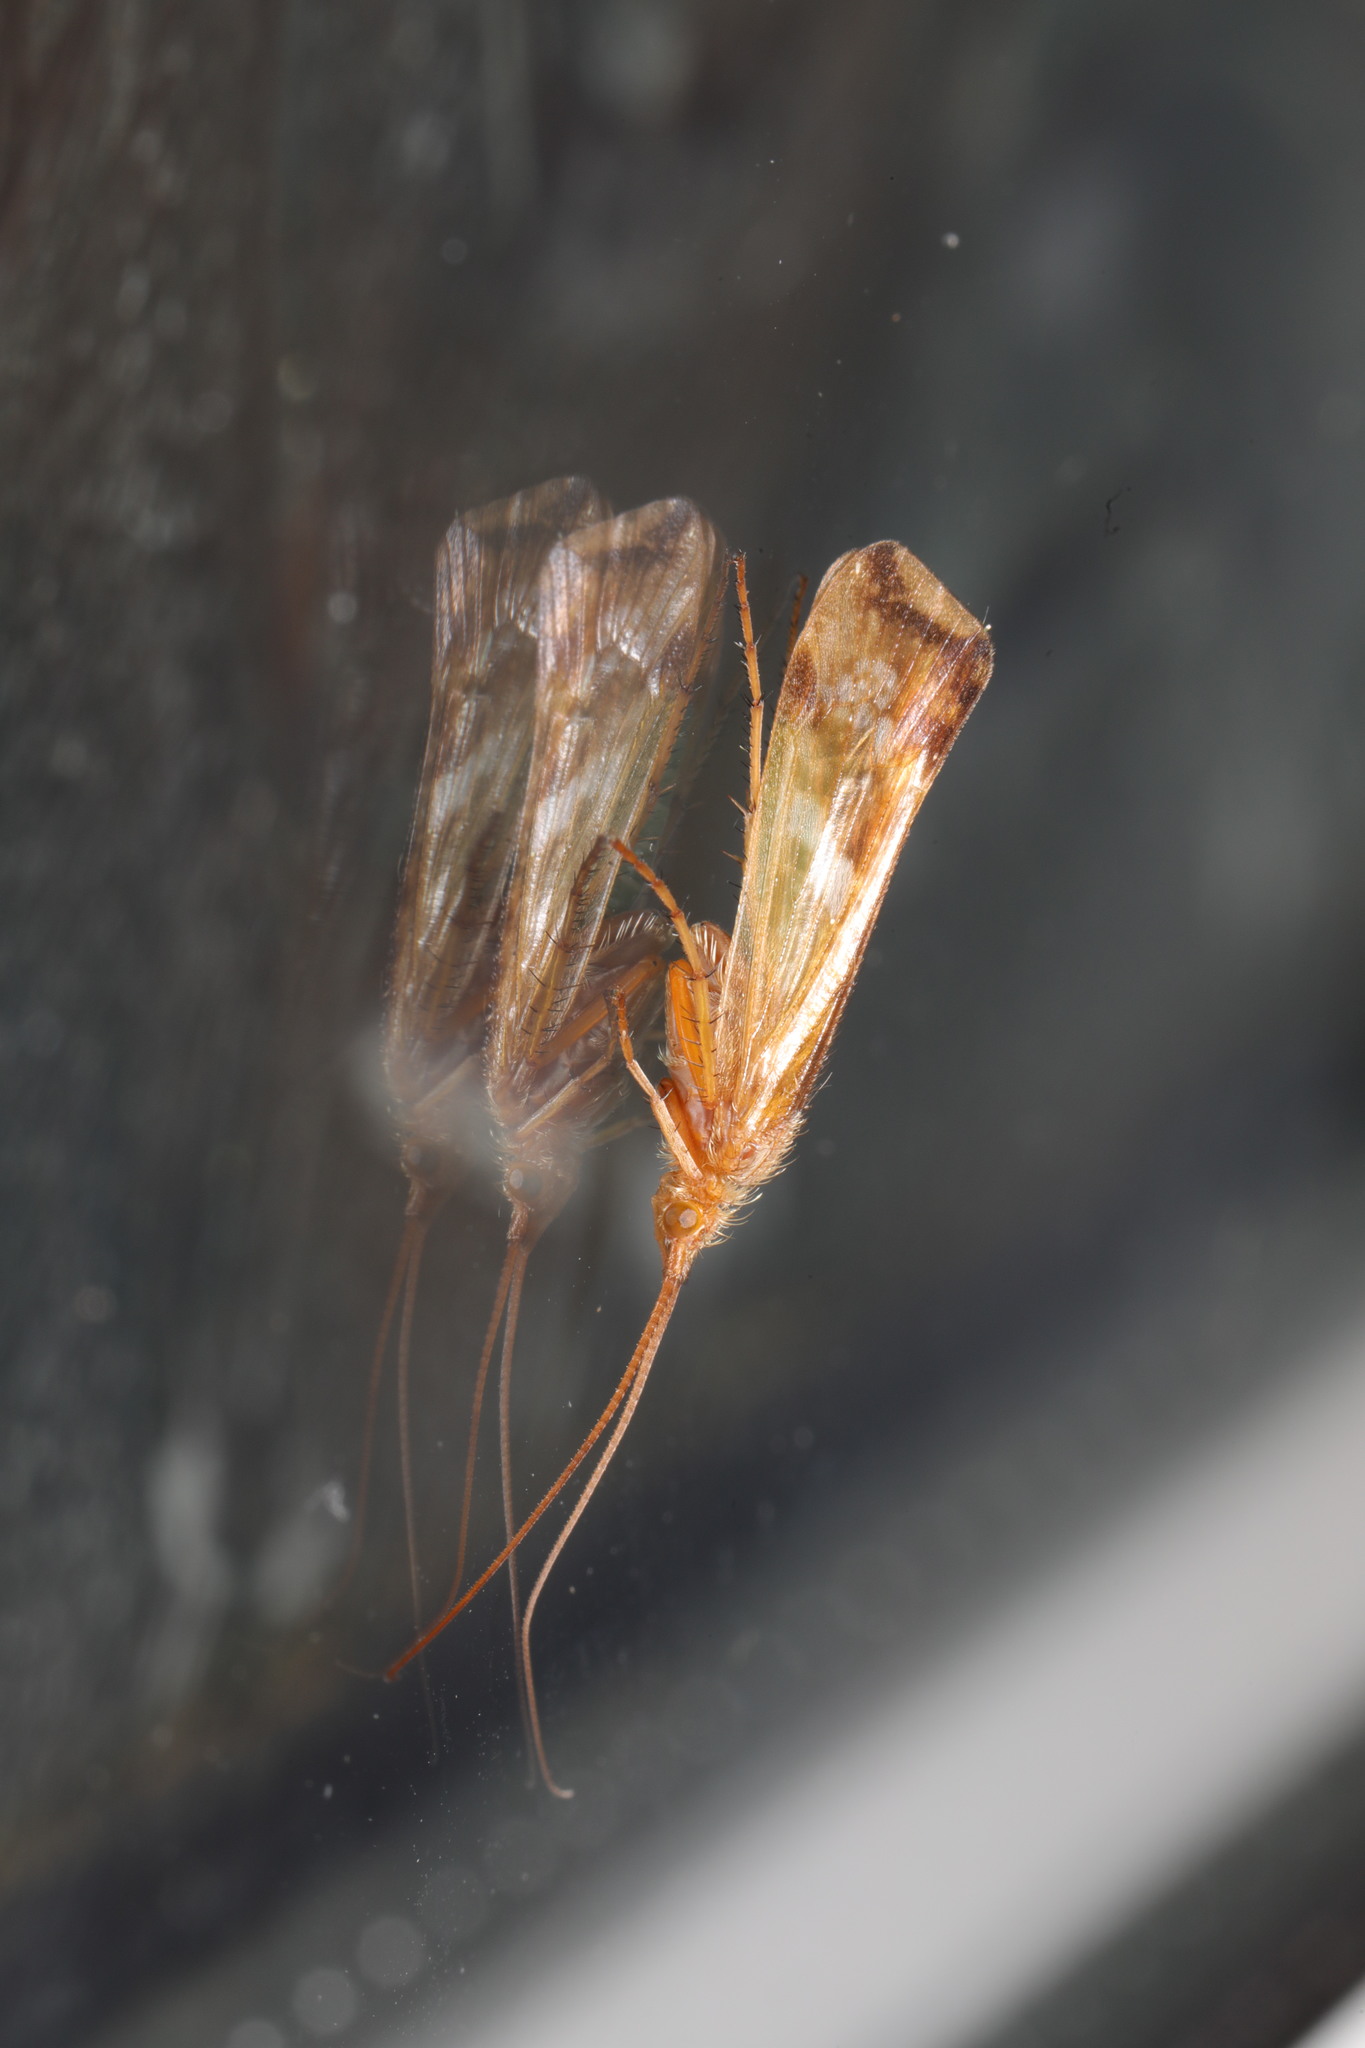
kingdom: Animalia
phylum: Arthropoda
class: Insecta
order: Trichoptera
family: Limnephilidae
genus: Limnephilus
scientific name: Limnephilus lunatus
